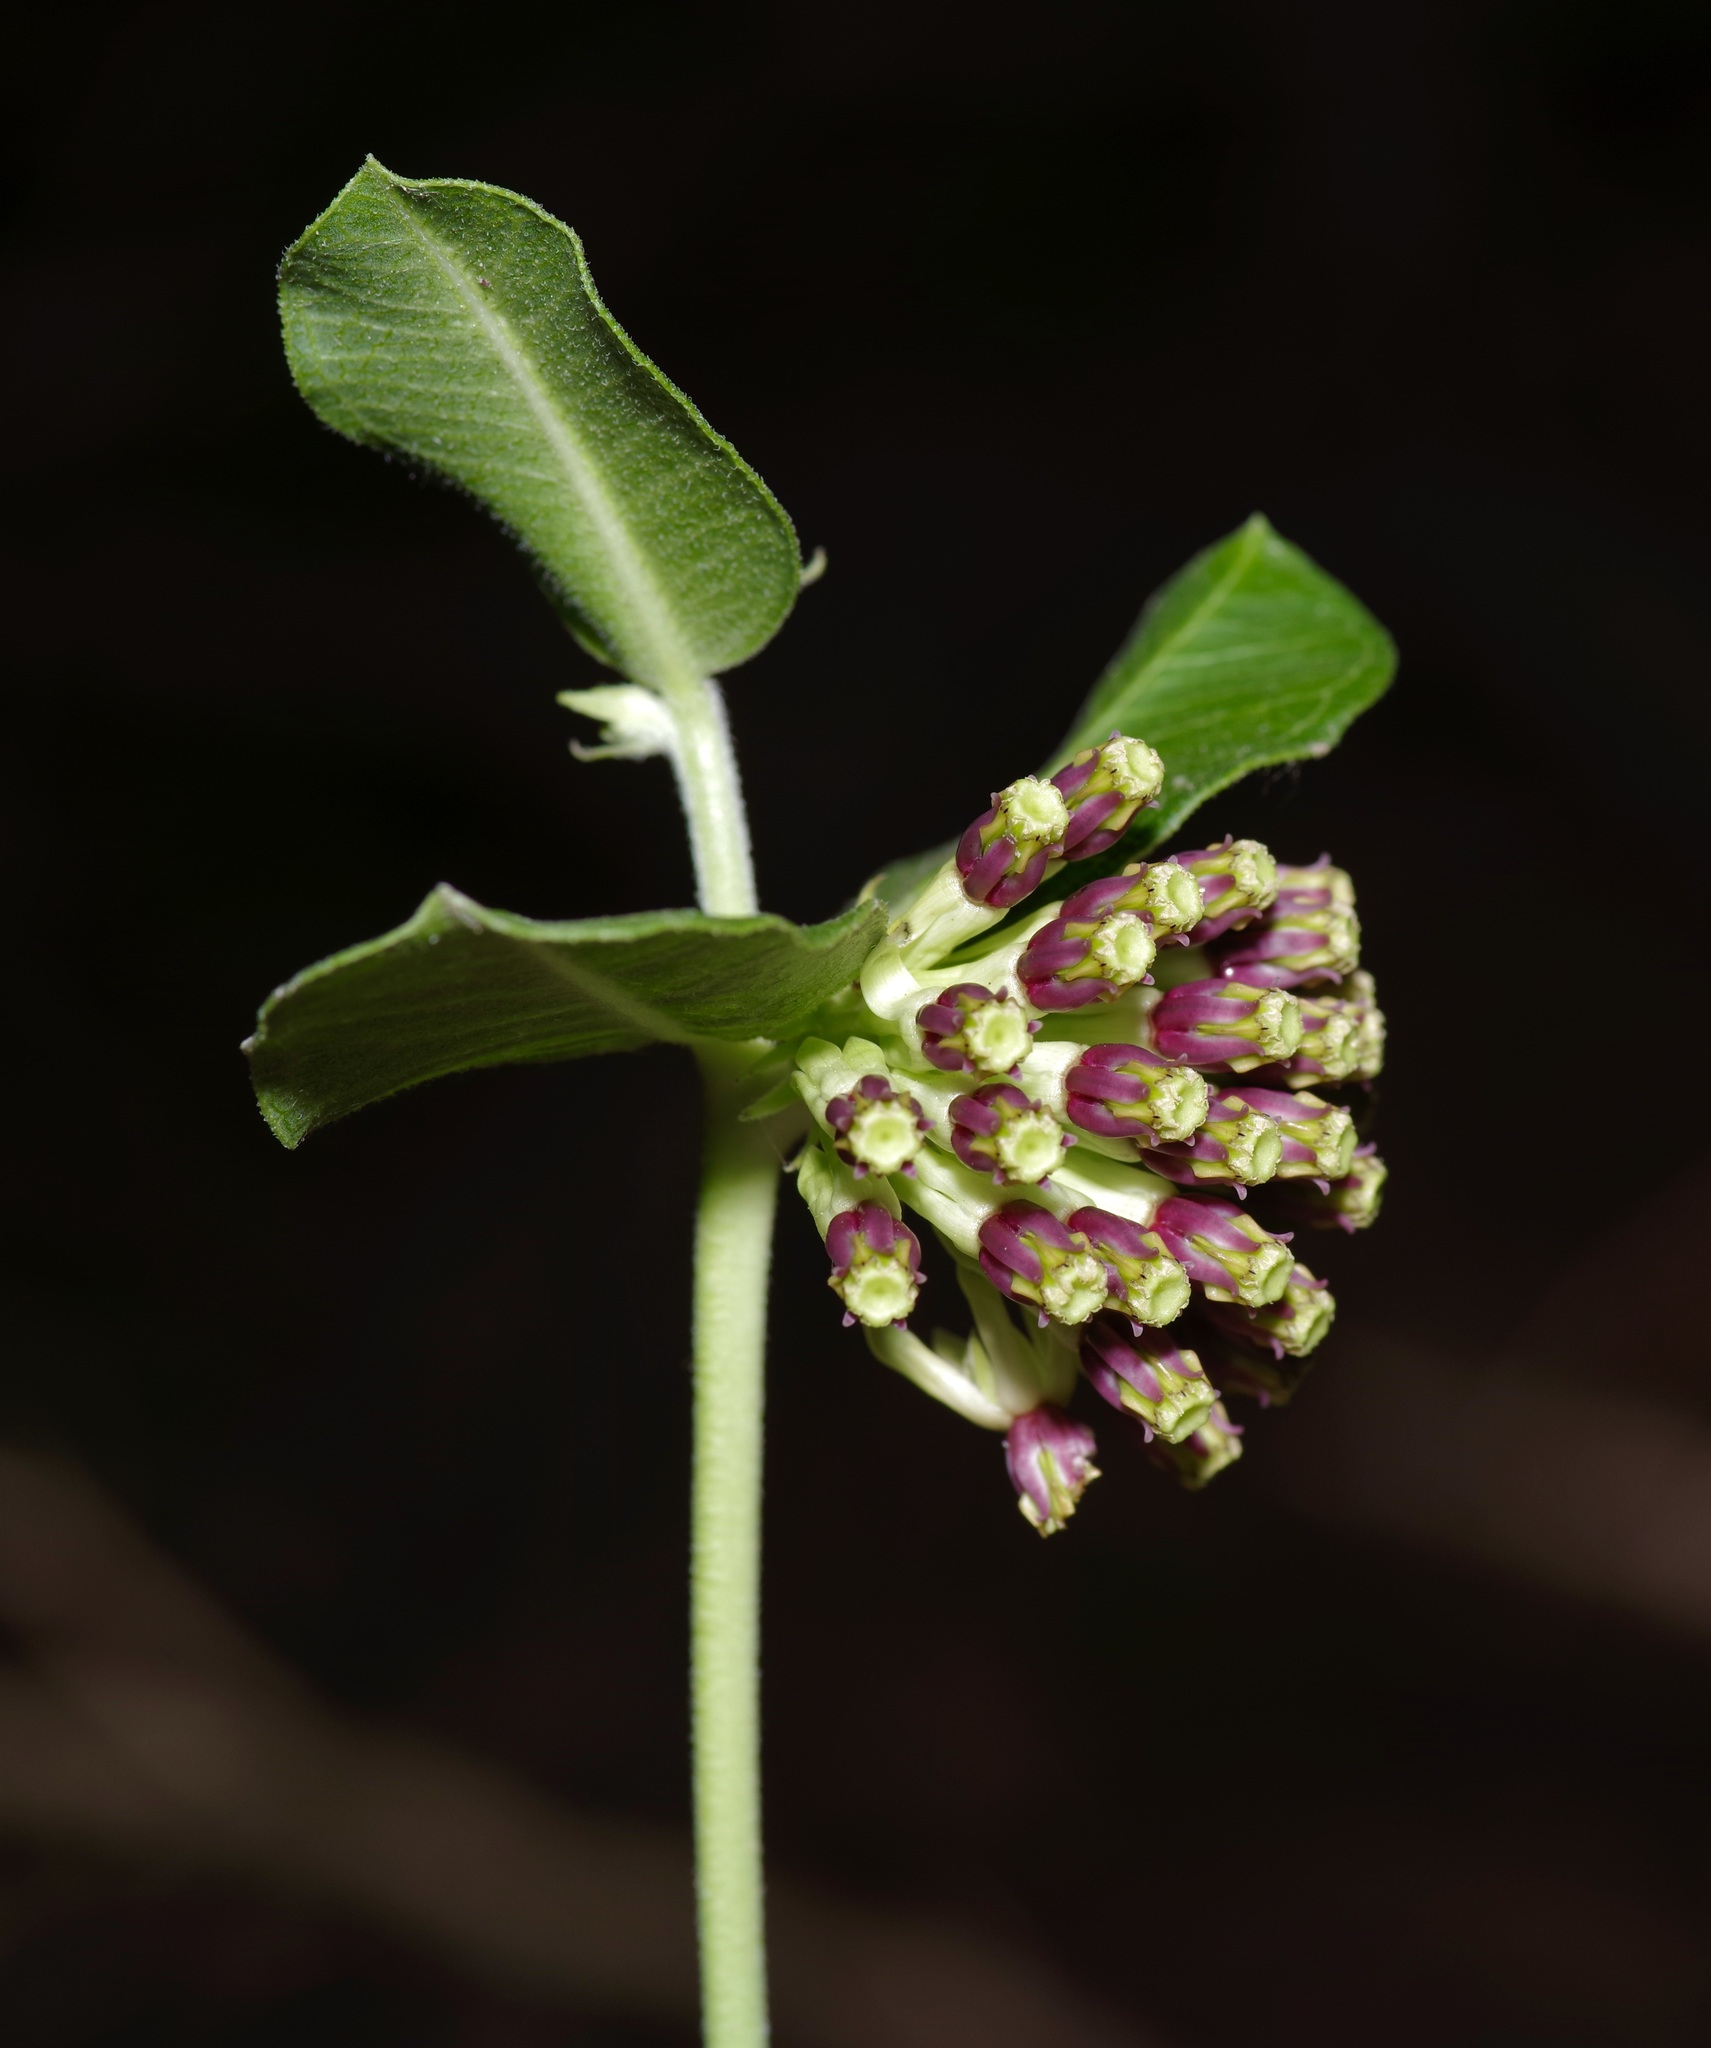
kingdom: Plantae
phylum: Tracheophyta
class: Magnoliopsida
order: Gentianales
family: Apocynaceae
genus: Asclepias
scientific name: Asclepias viridiflora
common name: Green comet milkweed
